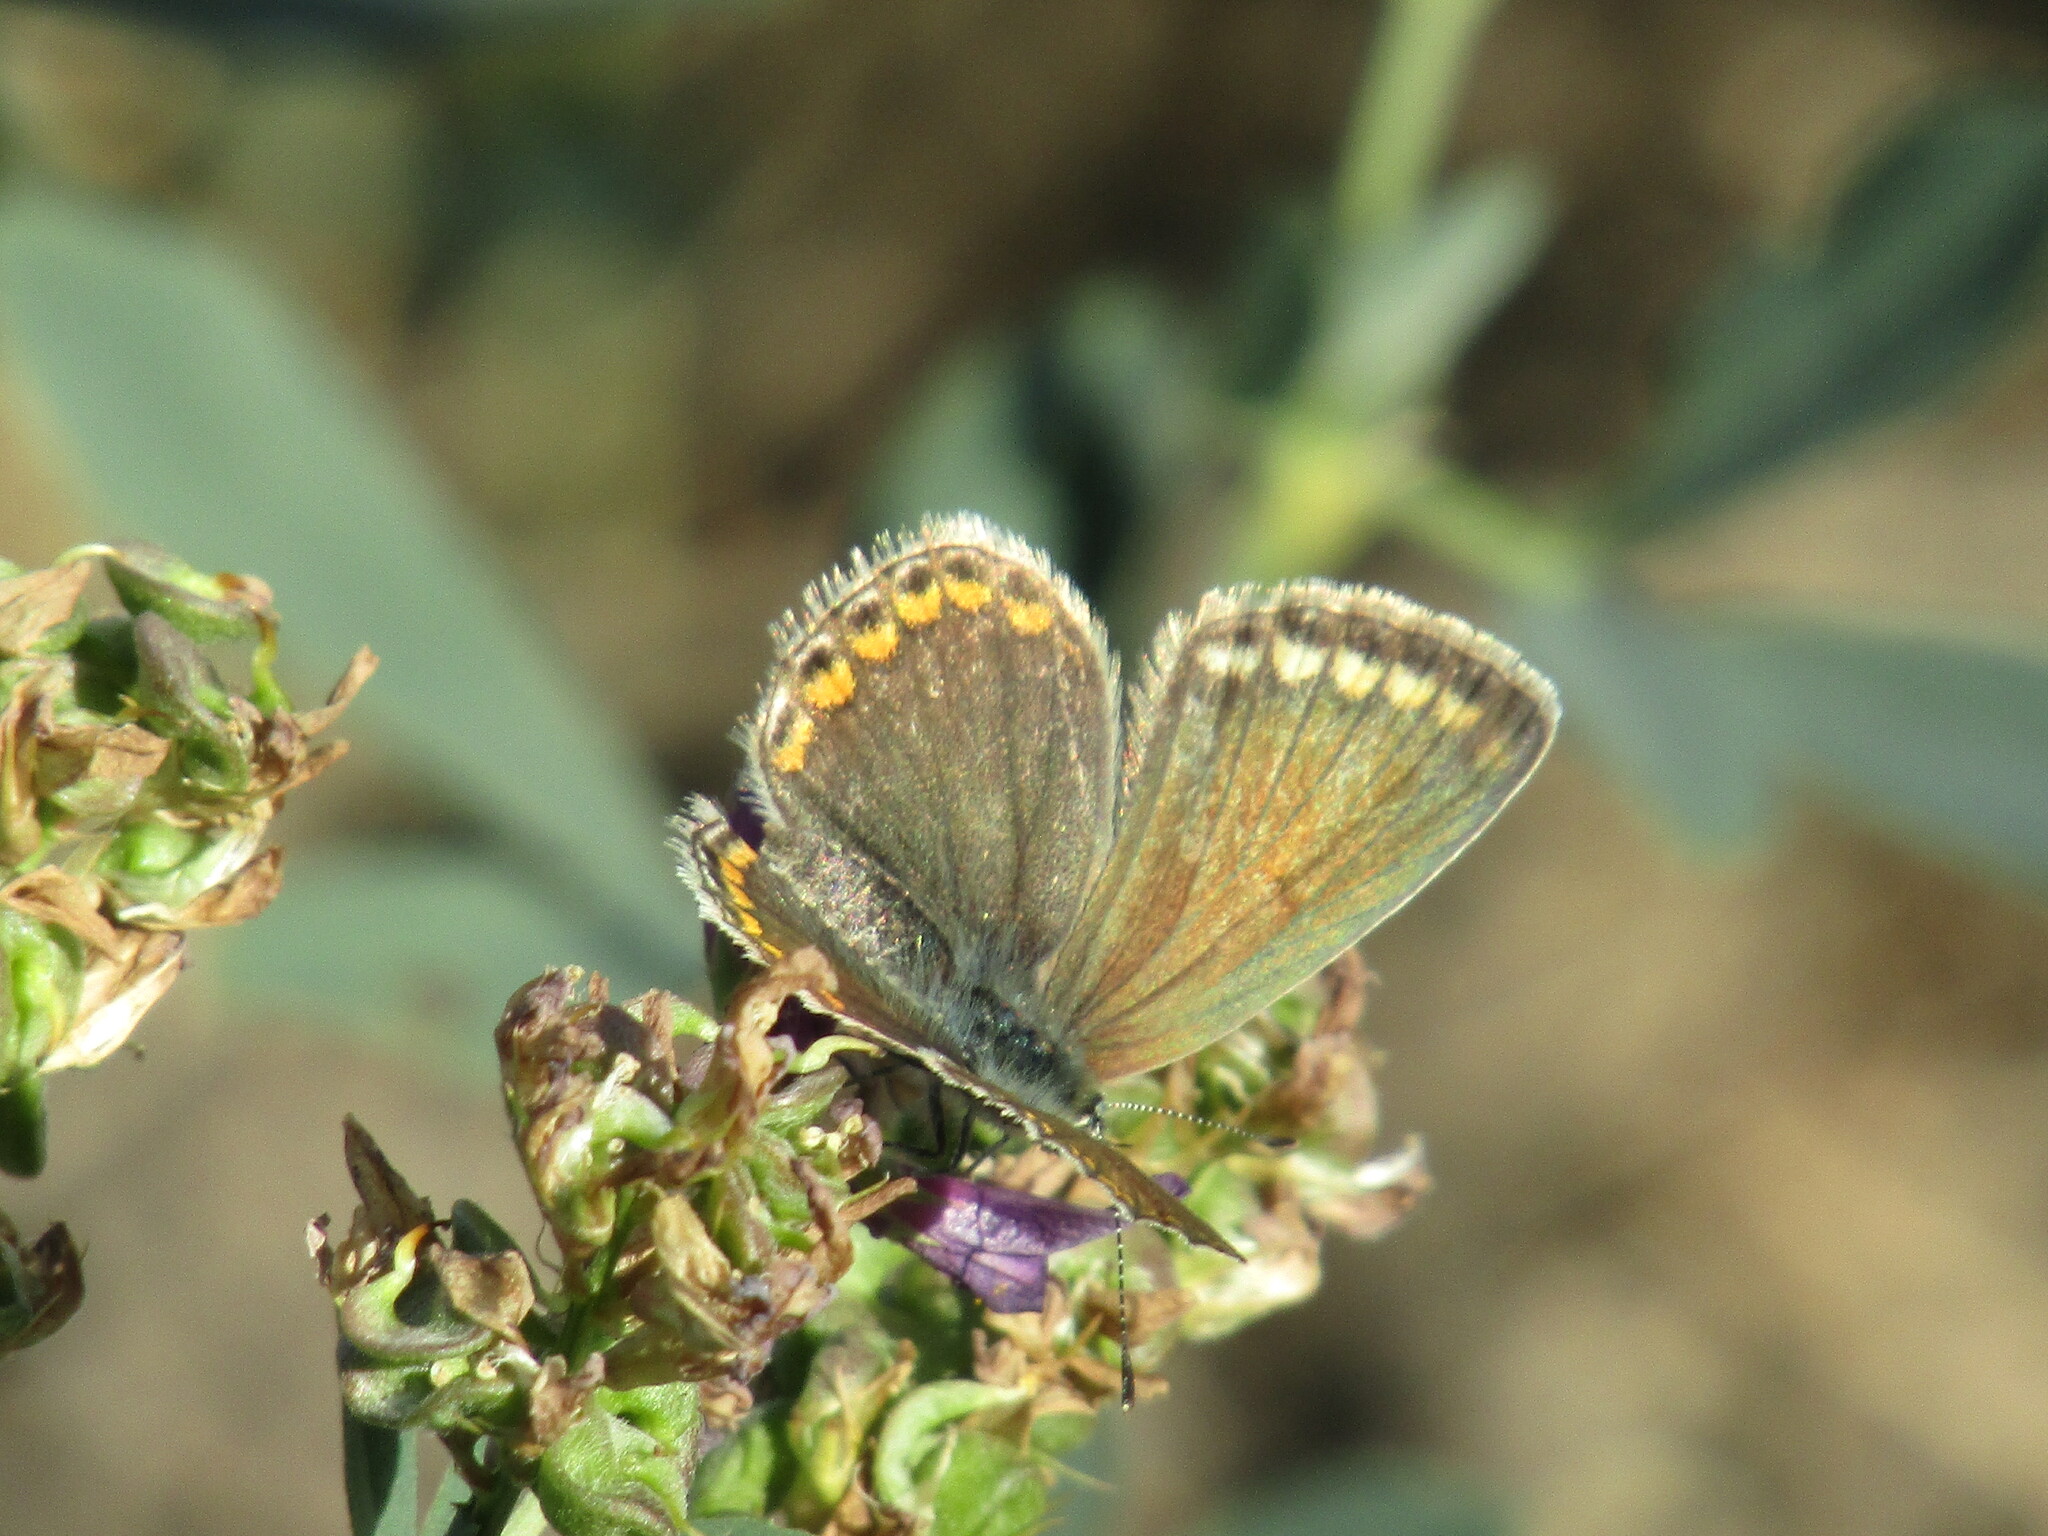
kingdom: Animalia
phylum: Arthropoda
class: Insecta
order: Lepidoptera
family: Lycaenidae
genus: Polyommatus
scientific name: Polyommatus icarus
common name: Common blue
